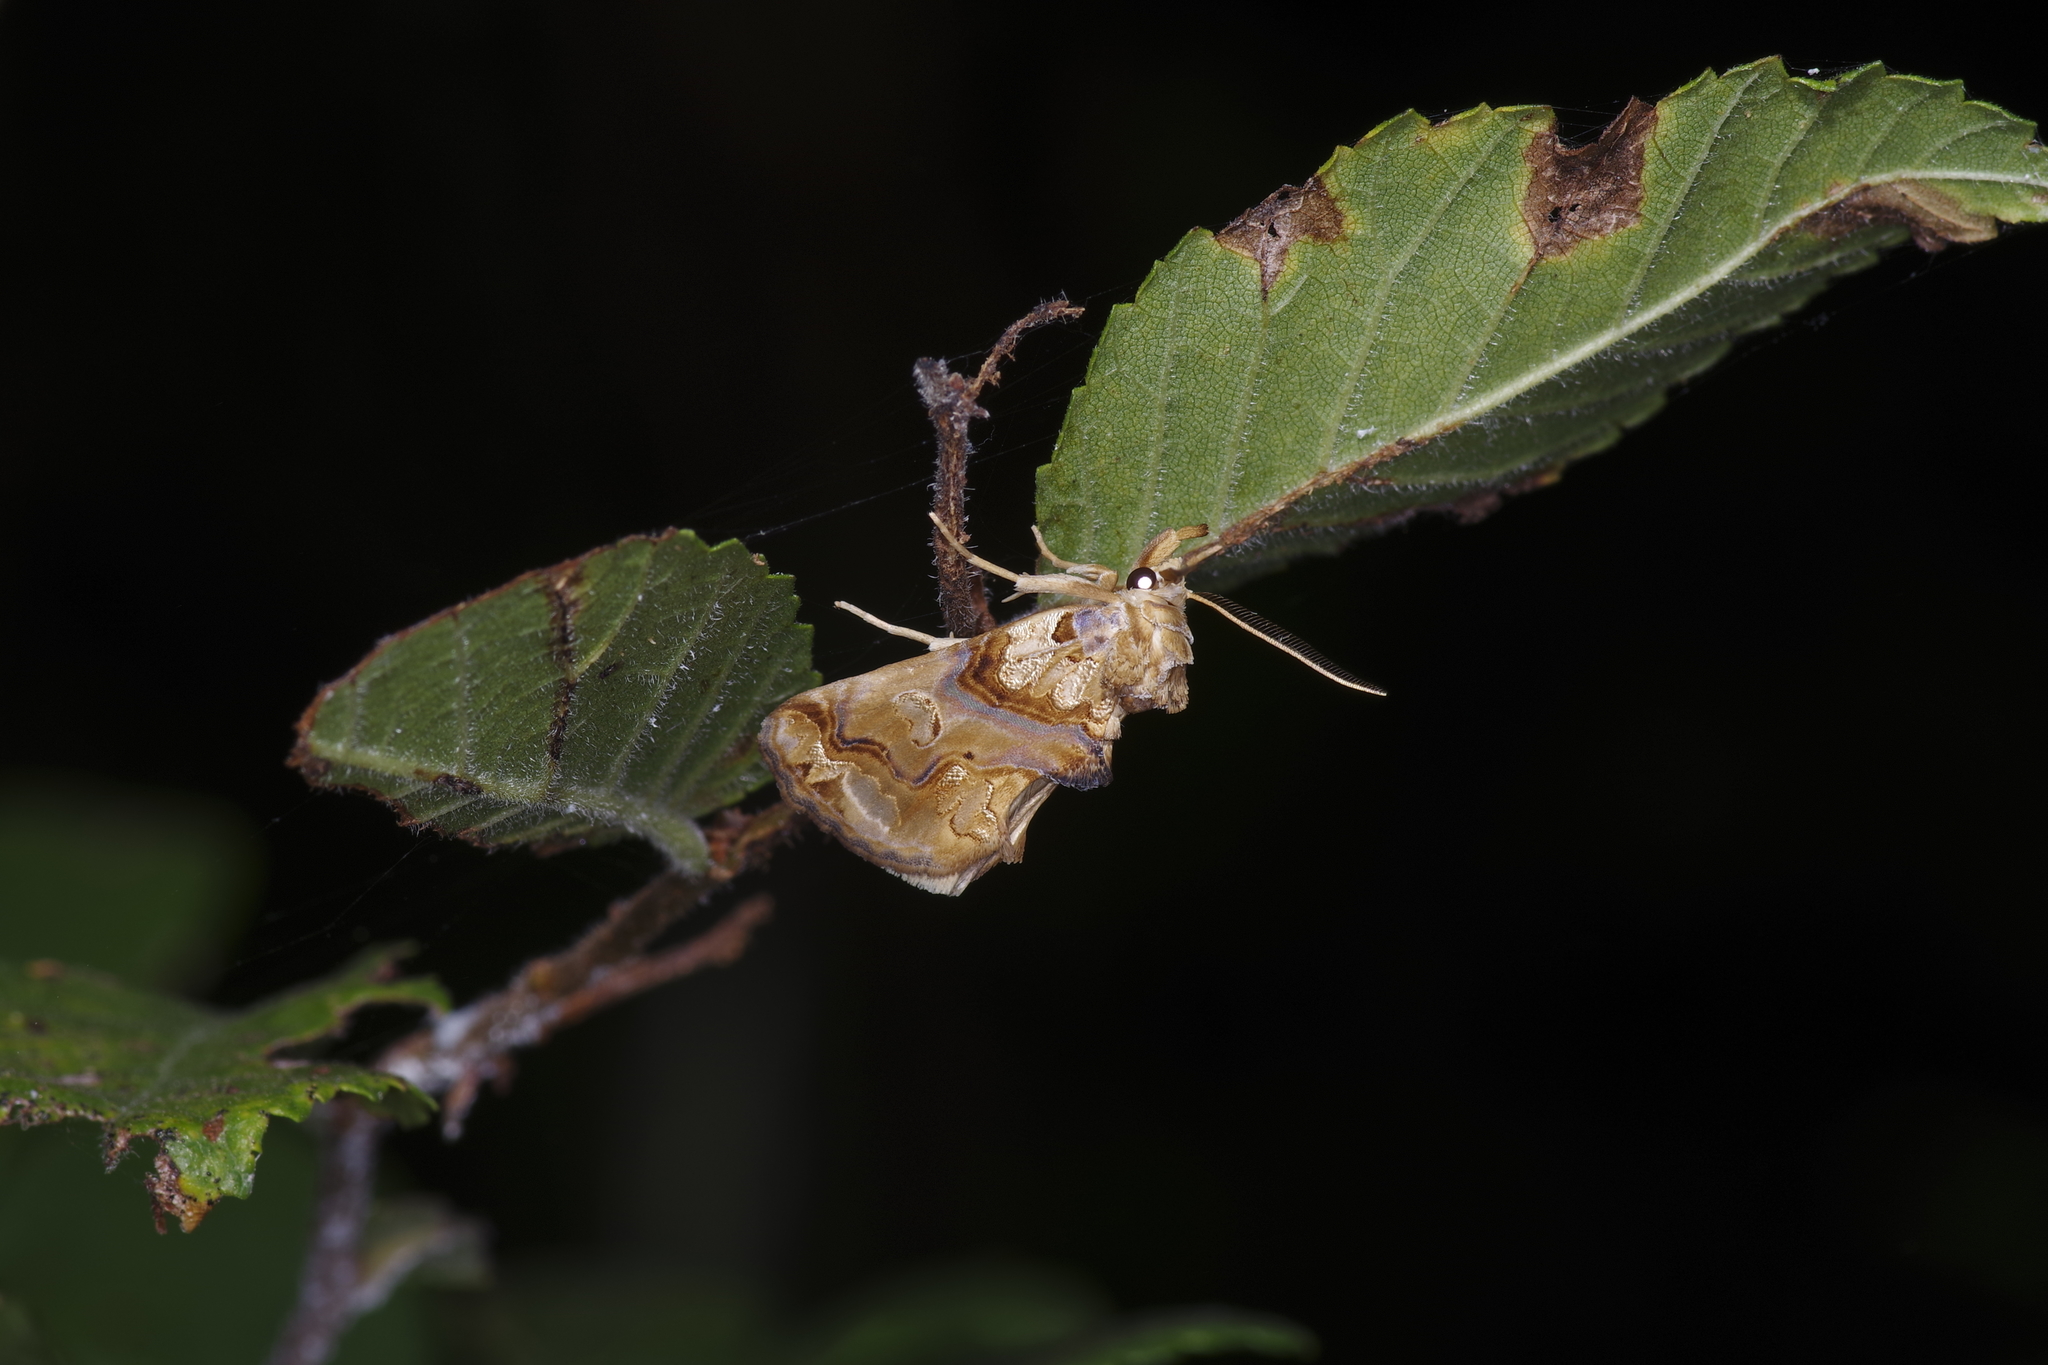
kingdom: Animalia
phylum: Arthropoda
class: Insecta
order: Lepidoptera
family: Erebidae
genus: Plusiodonta
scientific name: Plusiodonta compressipalpis
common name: Moonseed moth
